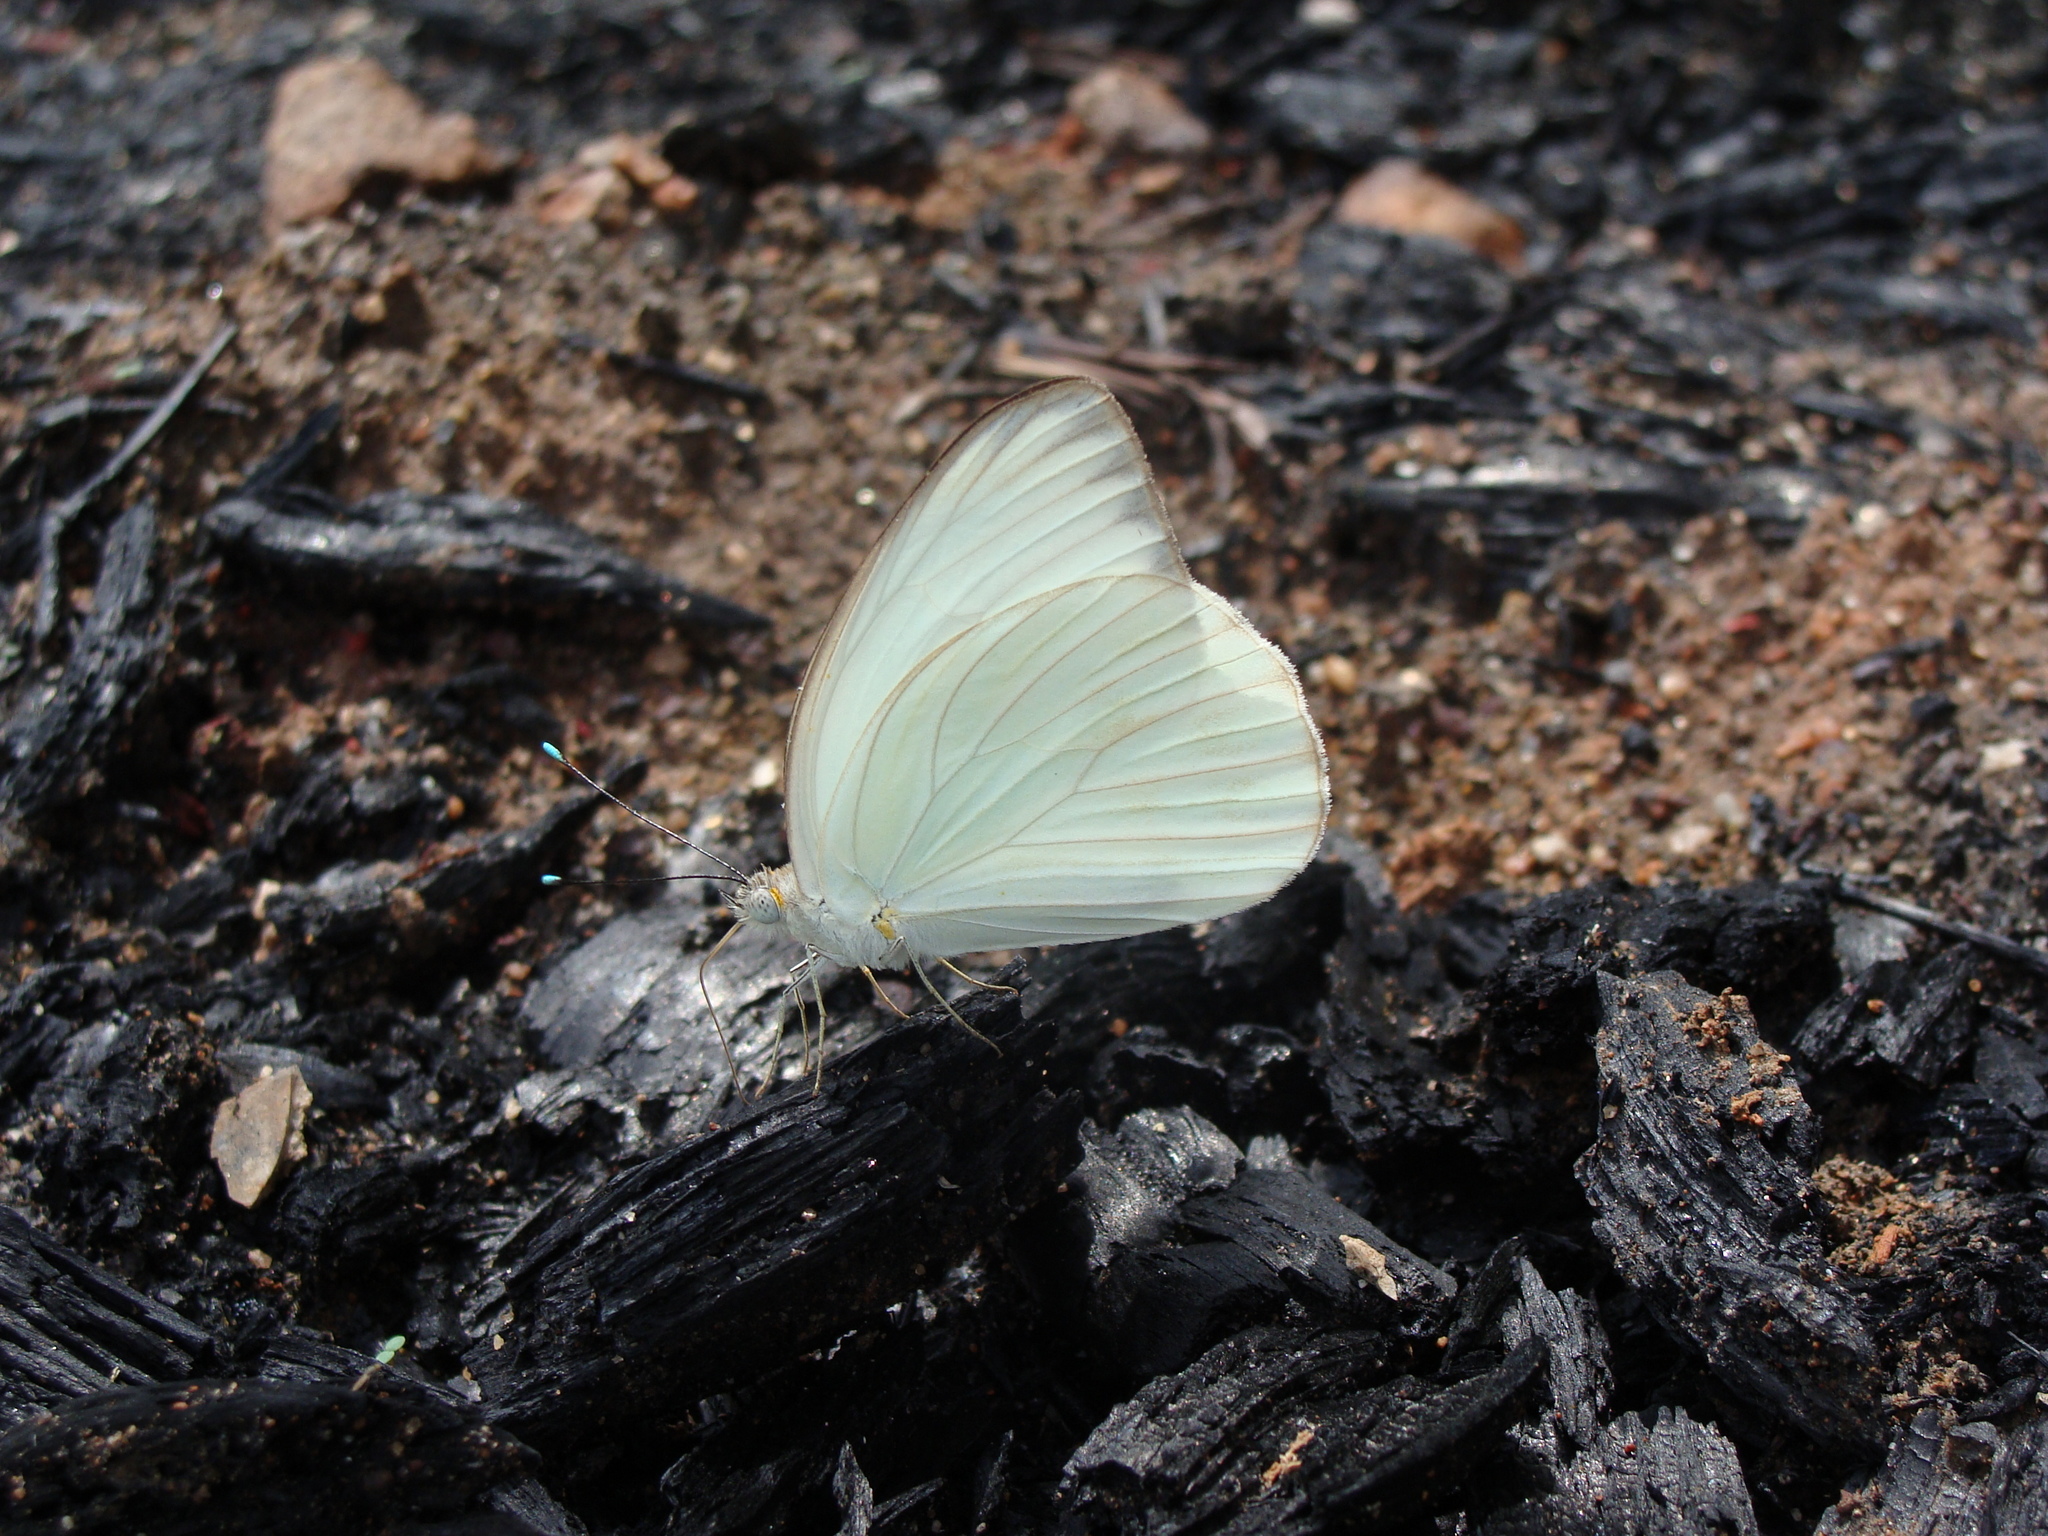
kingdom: Animalia
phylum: Arthropoda
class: Insecta
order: Lepidoptera
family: Pieridae
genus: Ascia
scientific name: Ascia monuste
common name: Great southern white
